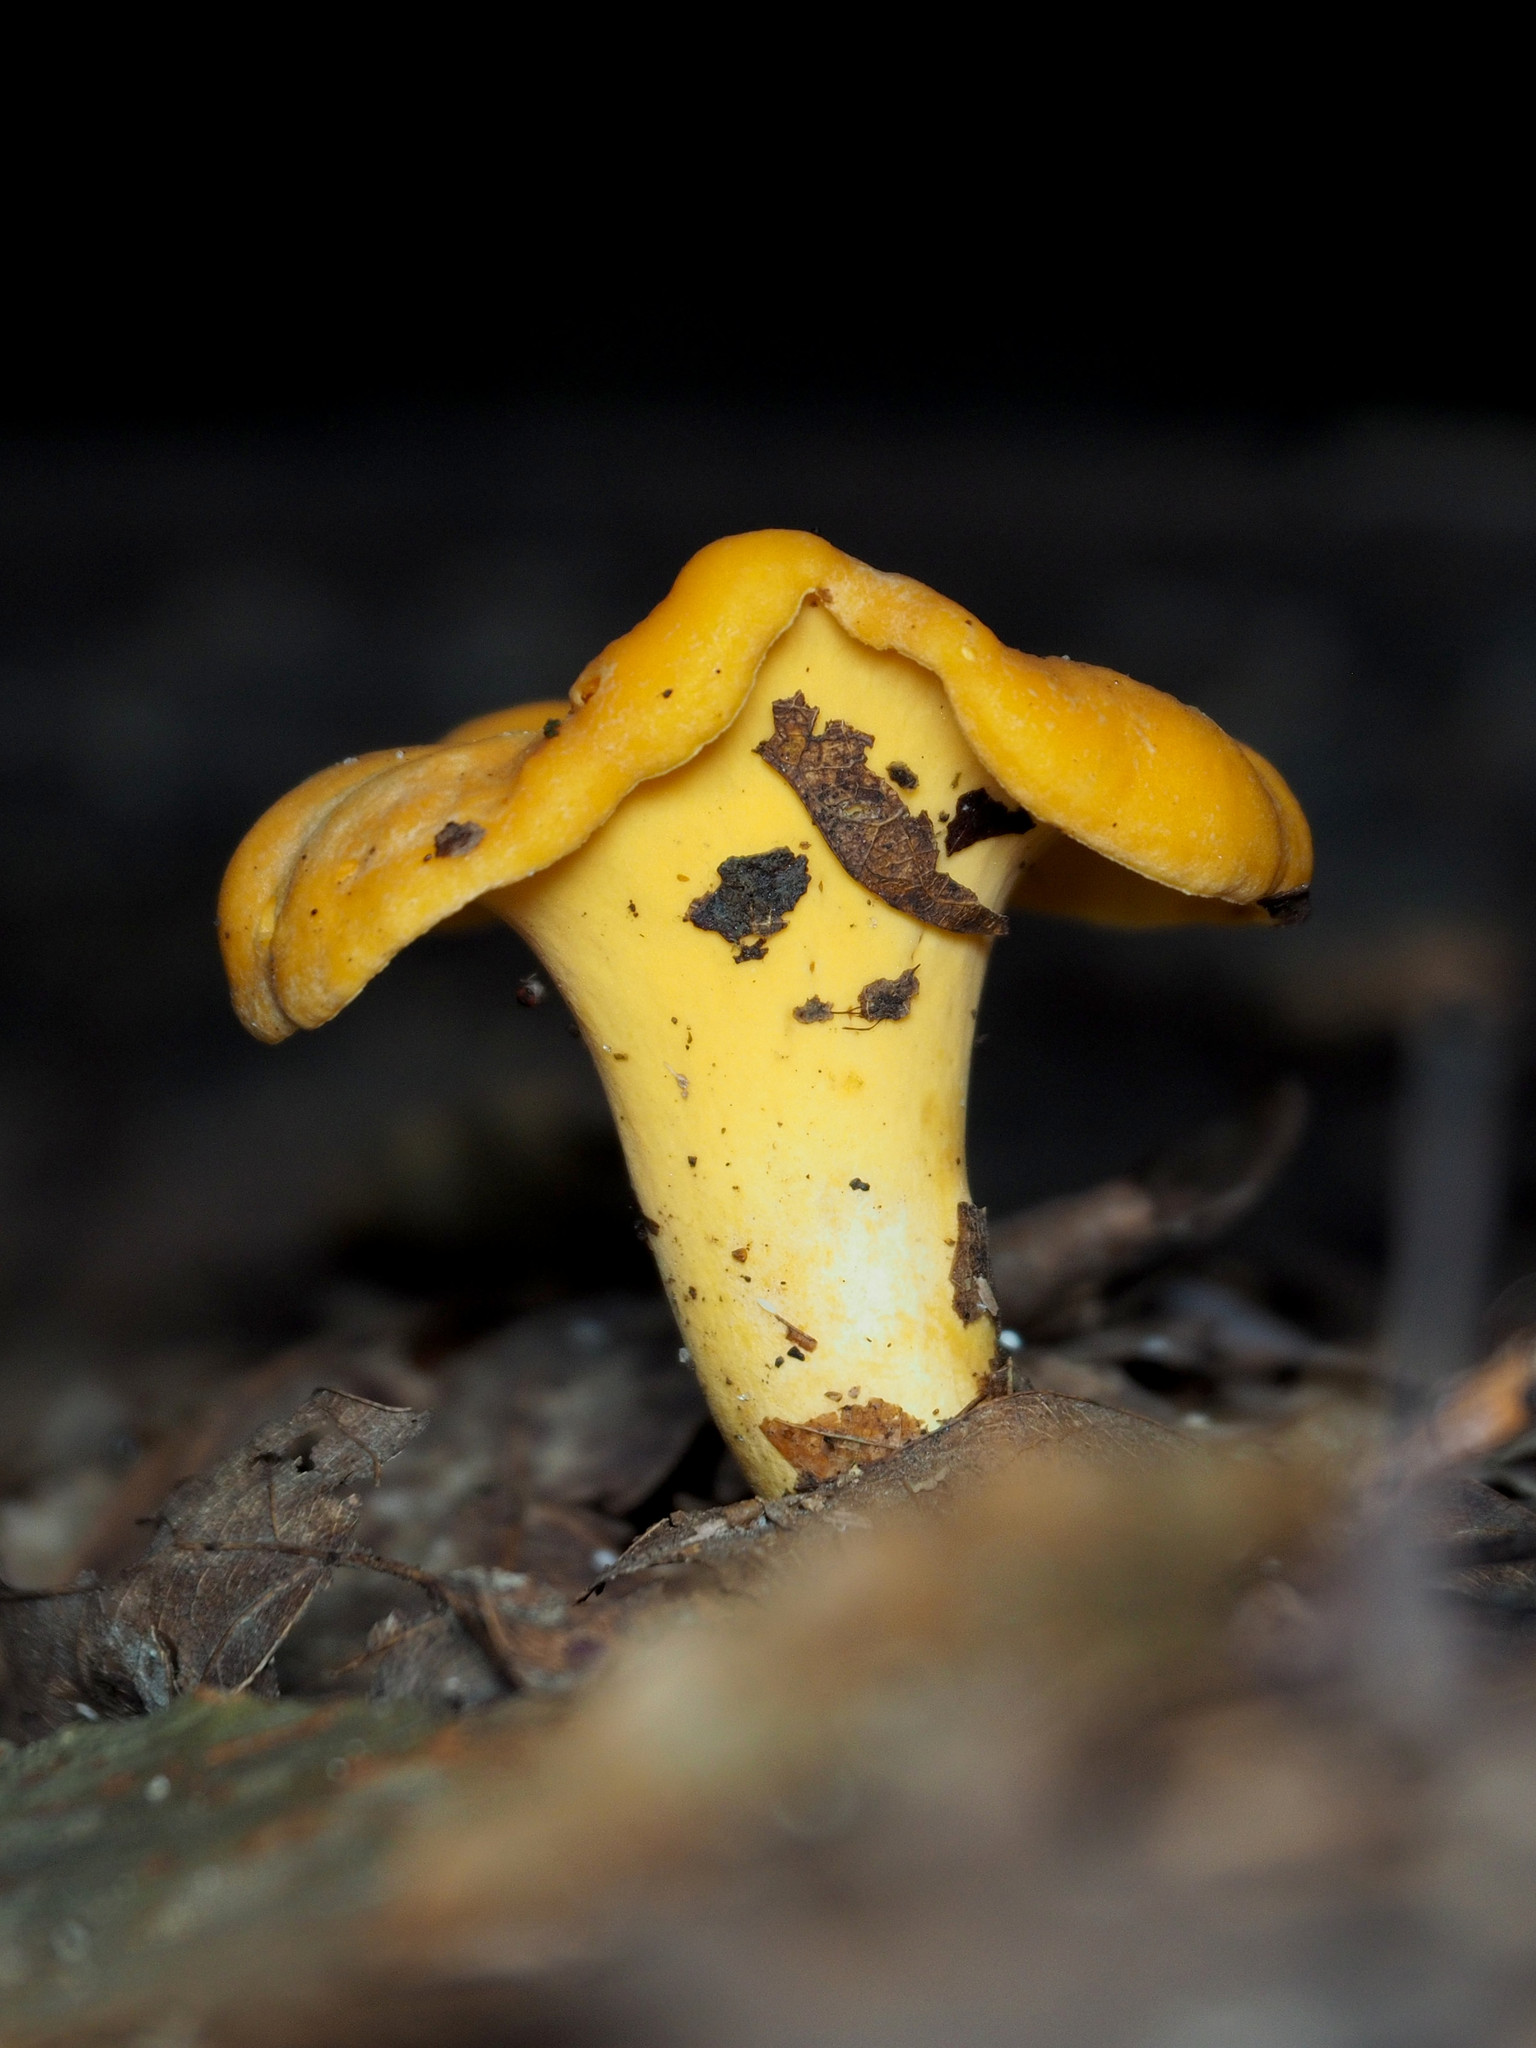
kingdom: Fungi
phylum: Basidiomycota
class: Agaricomycetes
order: Cantharellales
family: Hydnaceae
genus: Cantharellus
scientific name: Cantharellus lateritius
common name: Smooth chanterelle
